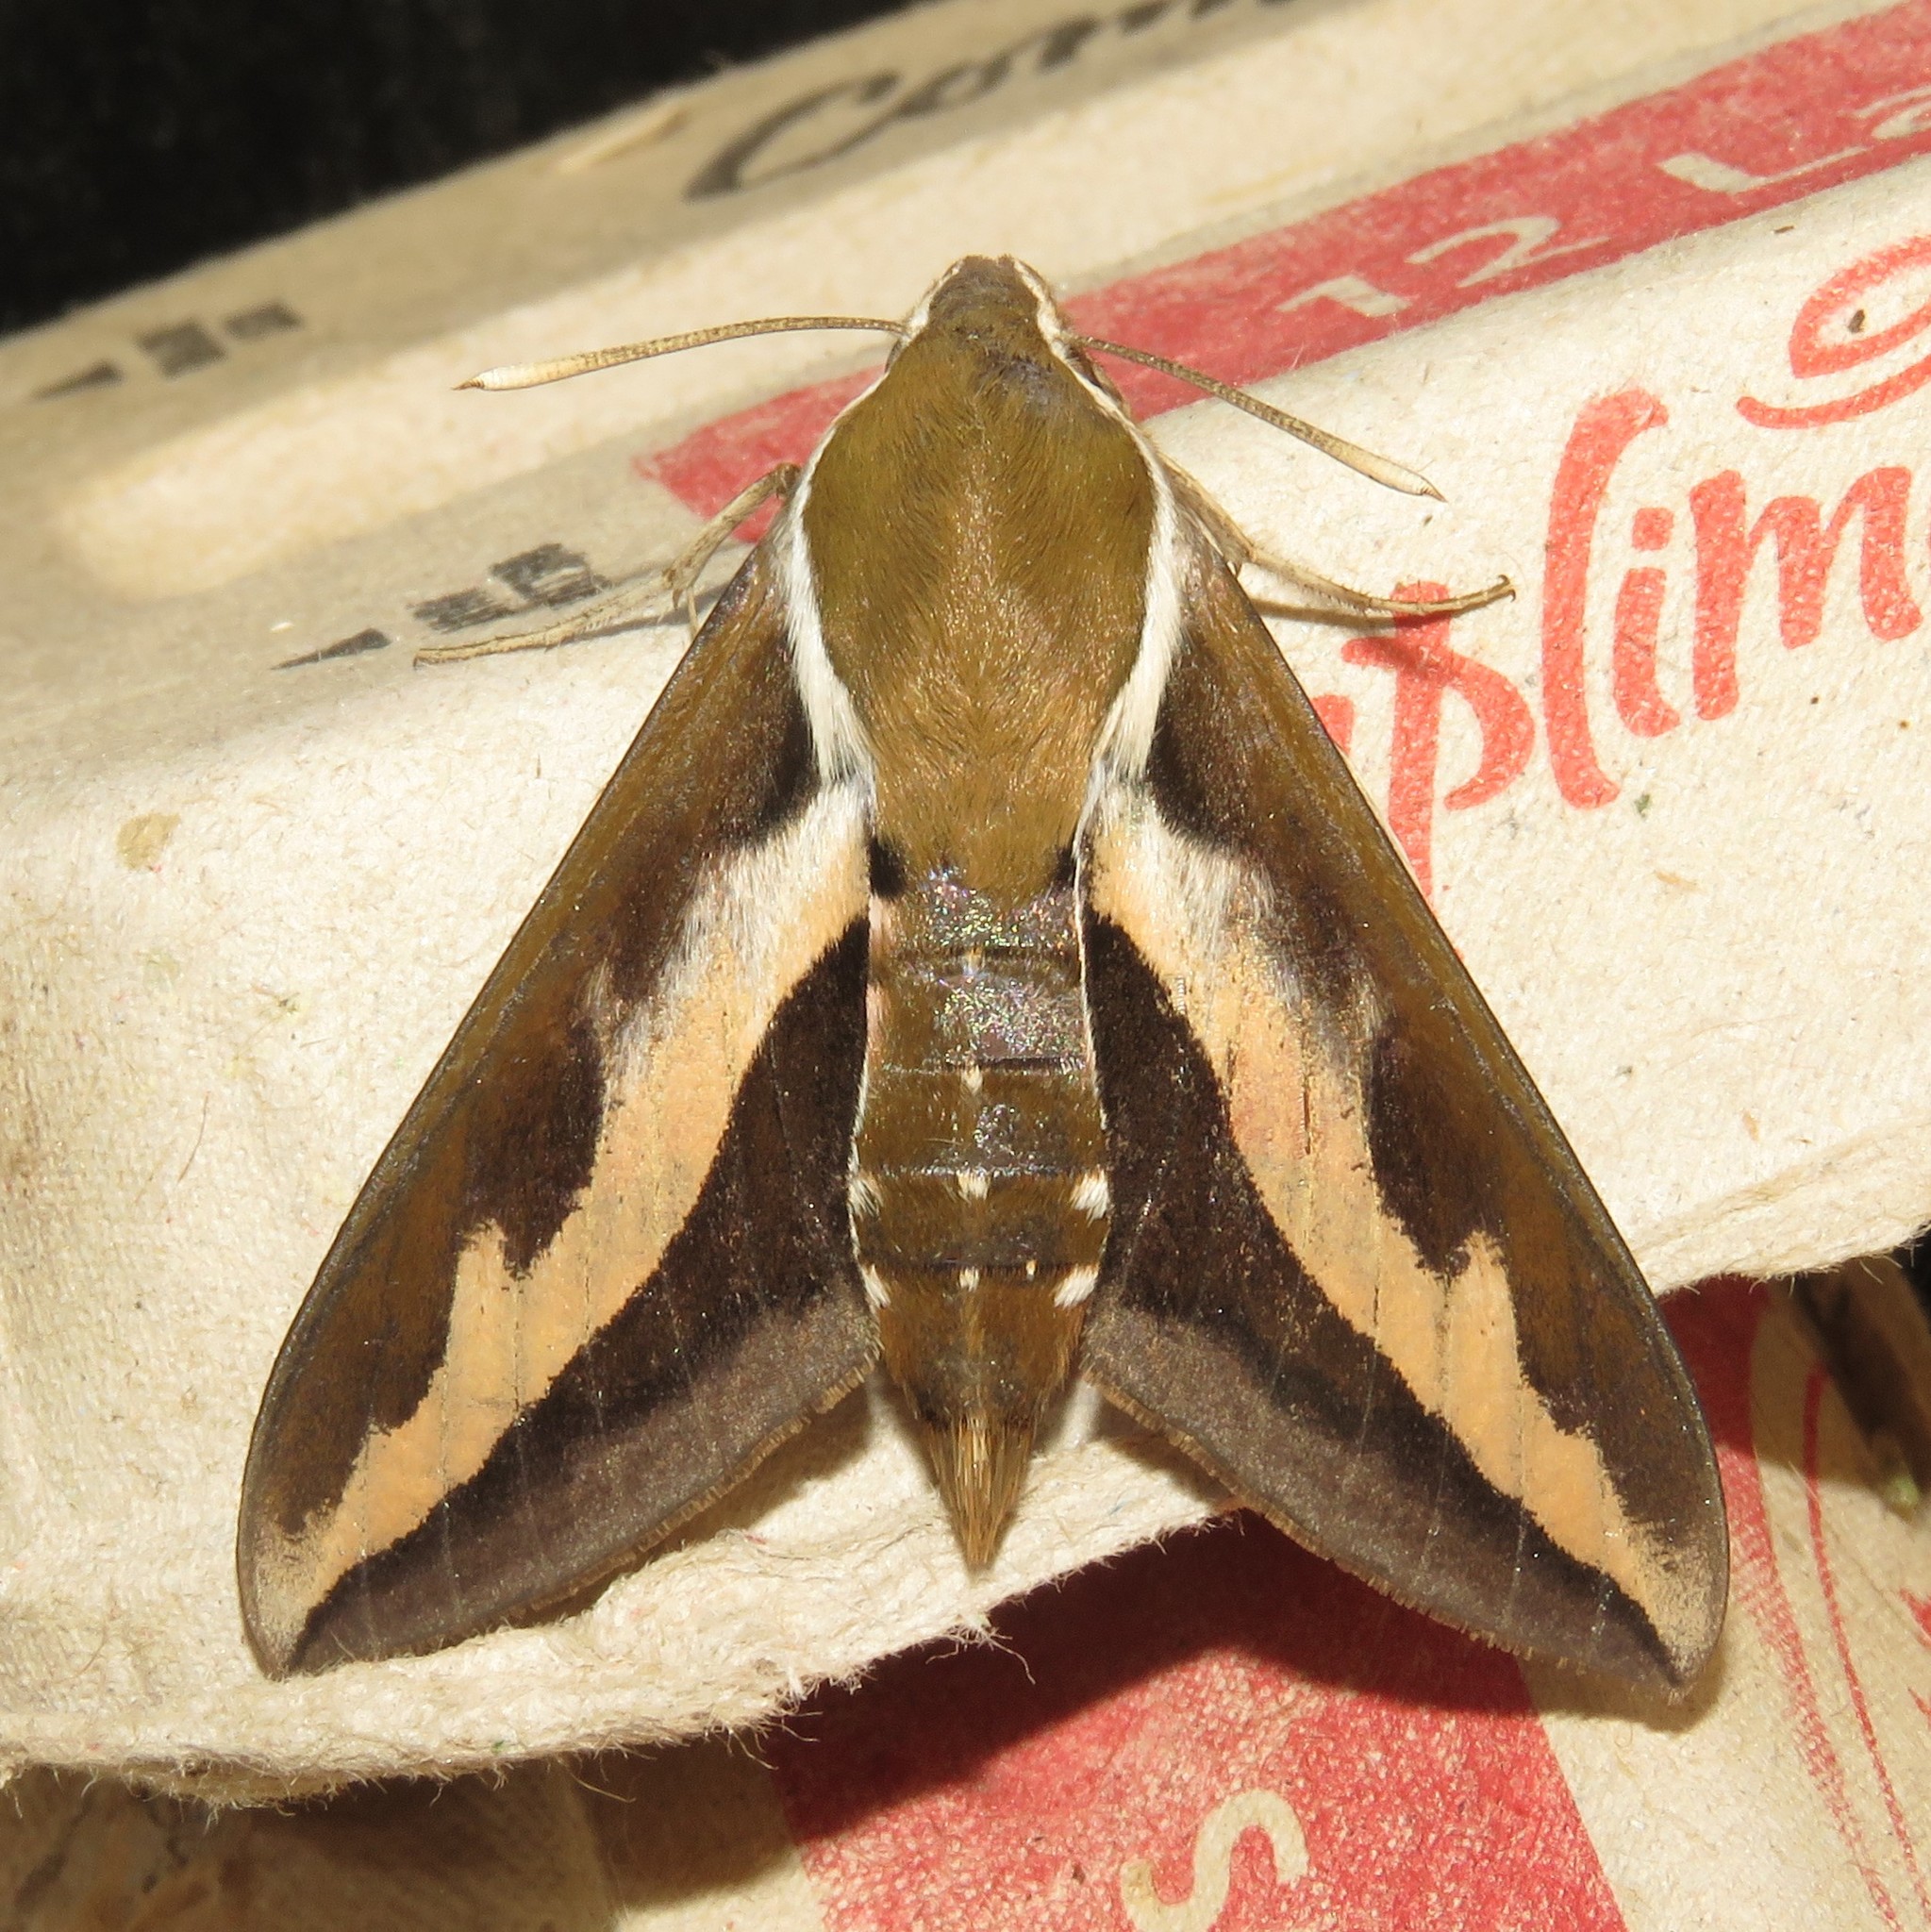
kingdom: Animalia
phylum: Arthropoda
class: Insecta
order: Lepidoptera
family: Sphingidae
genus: Hyles
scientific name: Hyles gallii
